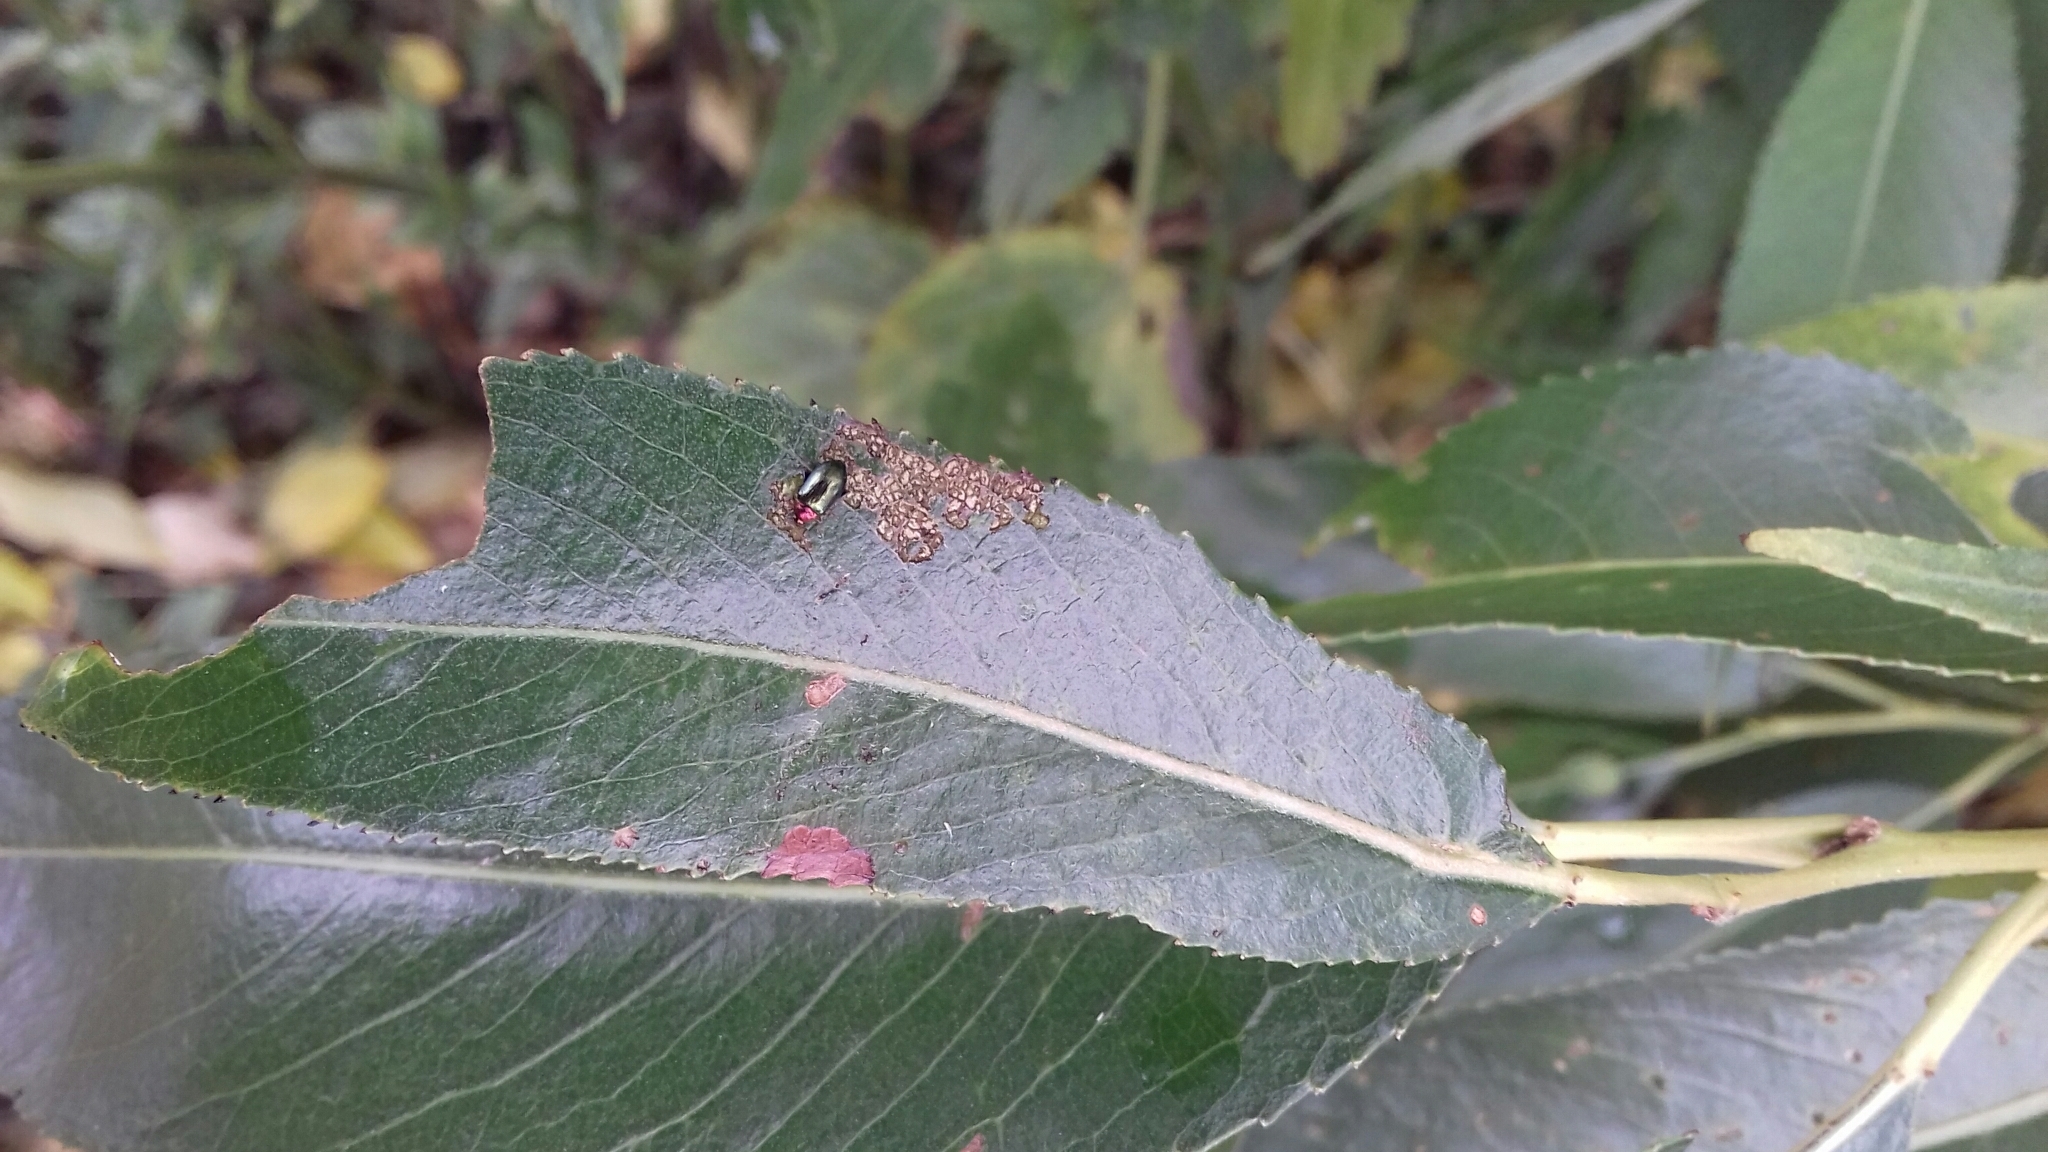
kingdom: Animalia
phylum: Arthropoda
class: Insecta
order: Coleoptera
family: Chrysomelidae
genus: Crepidodera
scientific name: Crepidodera aurata
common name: Willow flea beetle
